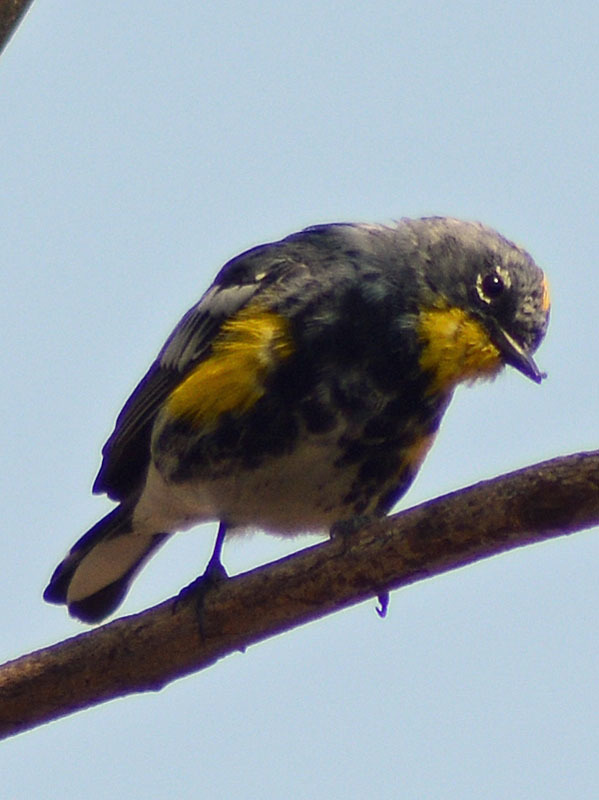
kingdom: Animalia
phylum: Chordata
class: Aves
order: Passeriformes
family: Parulidae
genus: Setophaga
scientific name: Setophaga auduboni
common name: Audubon's warbler
